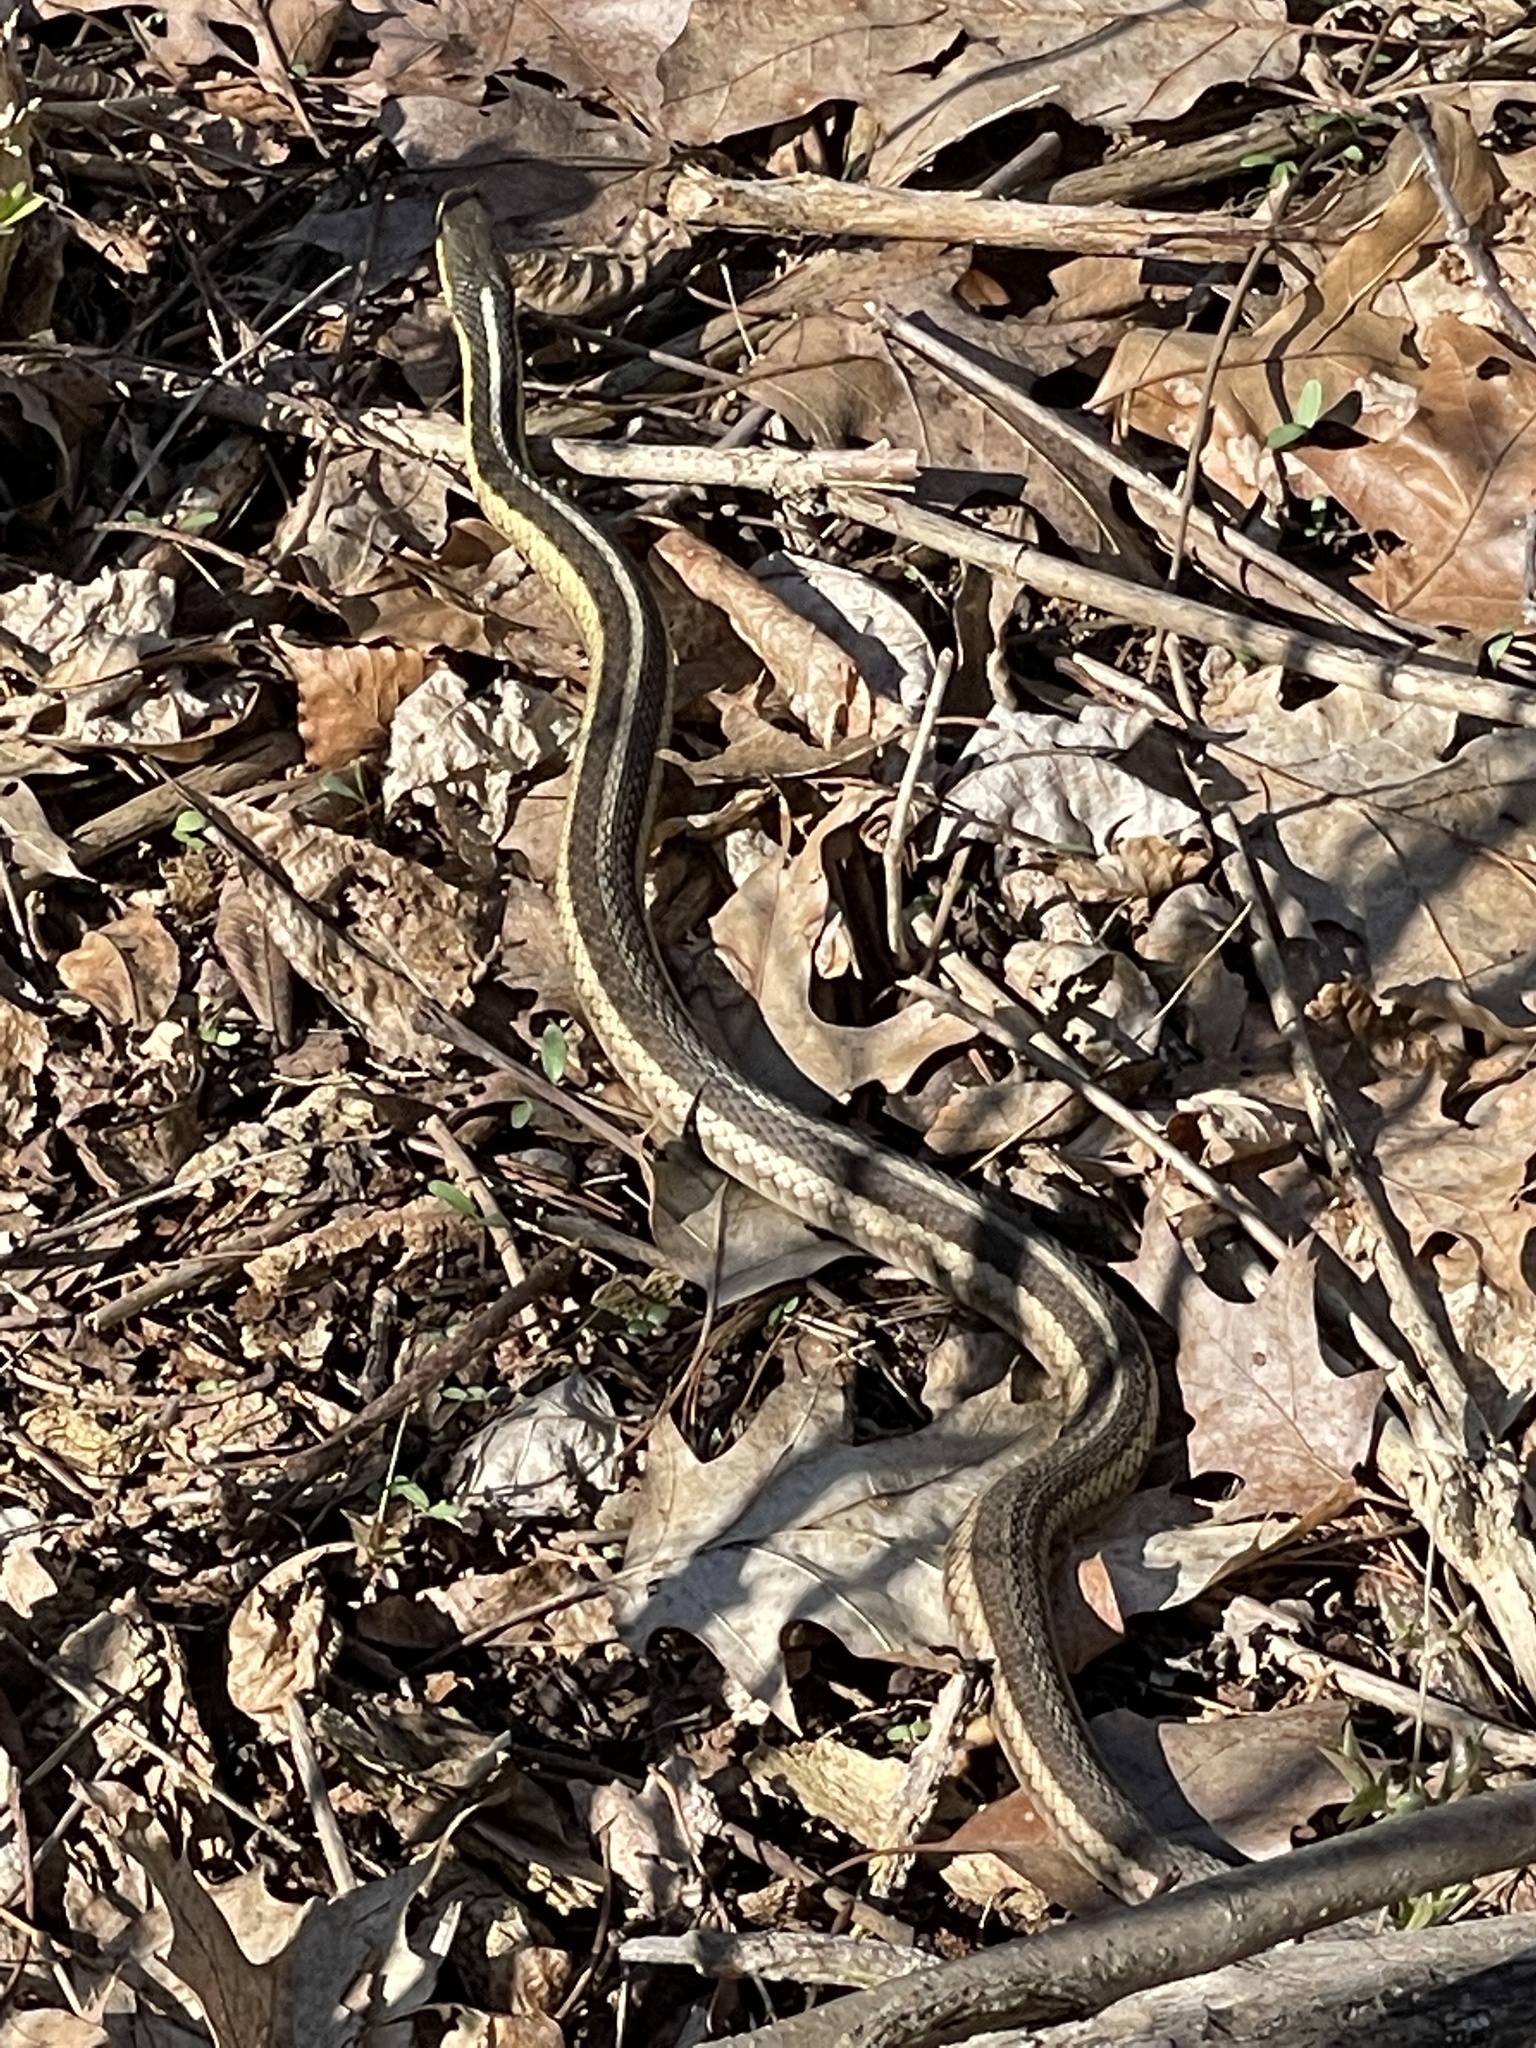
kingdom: Animalia
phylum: Chordata
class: Squamata
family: Colubridae
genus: Thamnophis
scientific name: Thamnophis sirtalis
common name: Common garter snake
